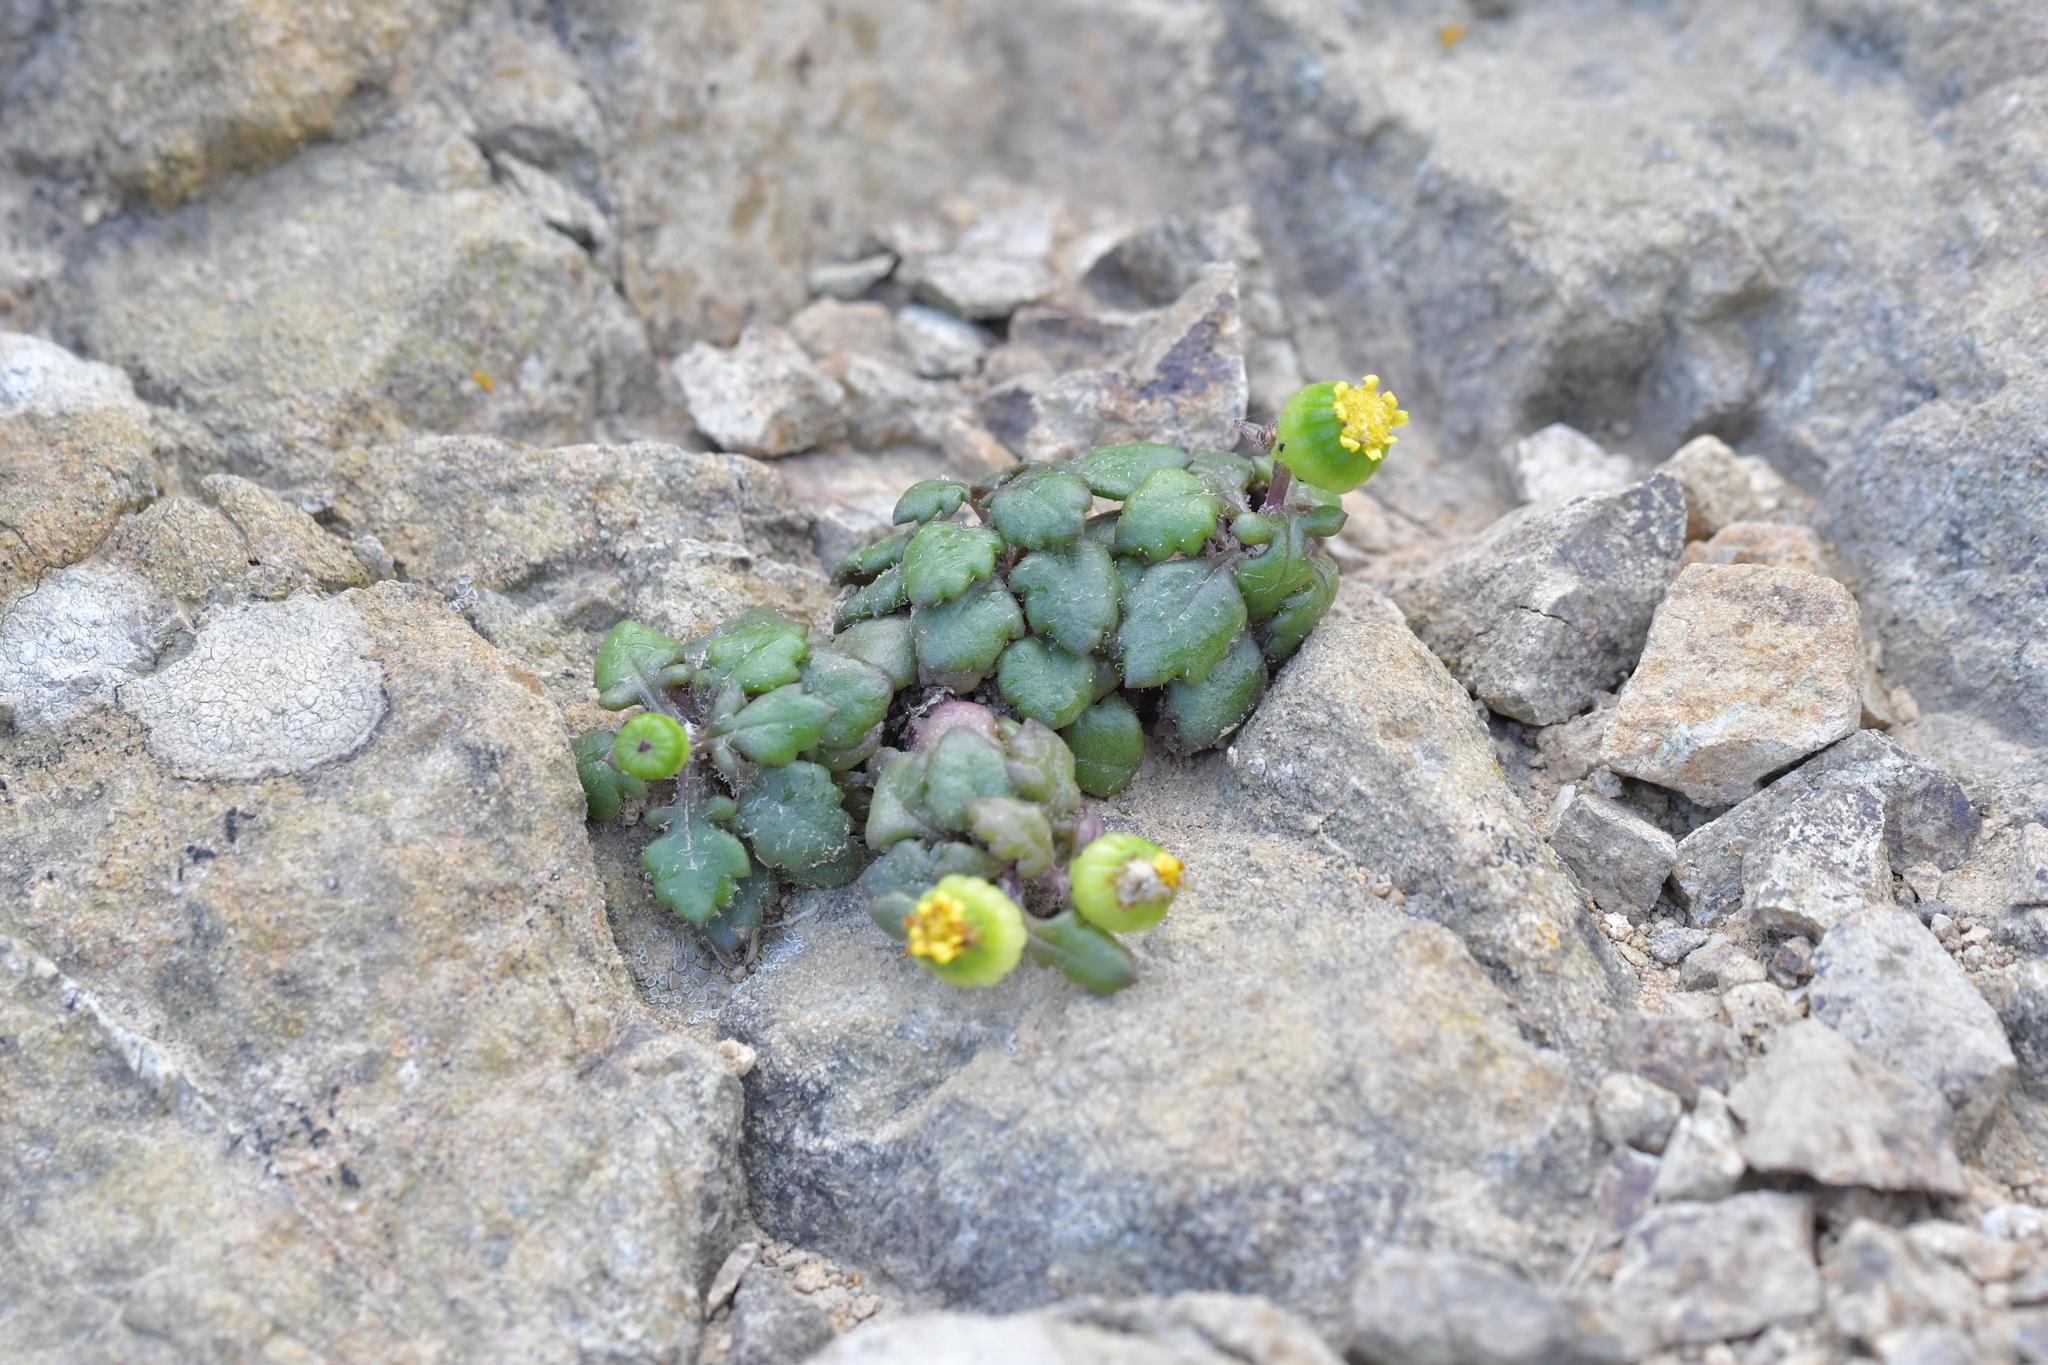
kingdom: Plantae
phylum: Tracheophyta
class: Magnoliopsida
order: Asterales
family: Asteraceae
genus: Senecio
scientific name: Senecio lautus
